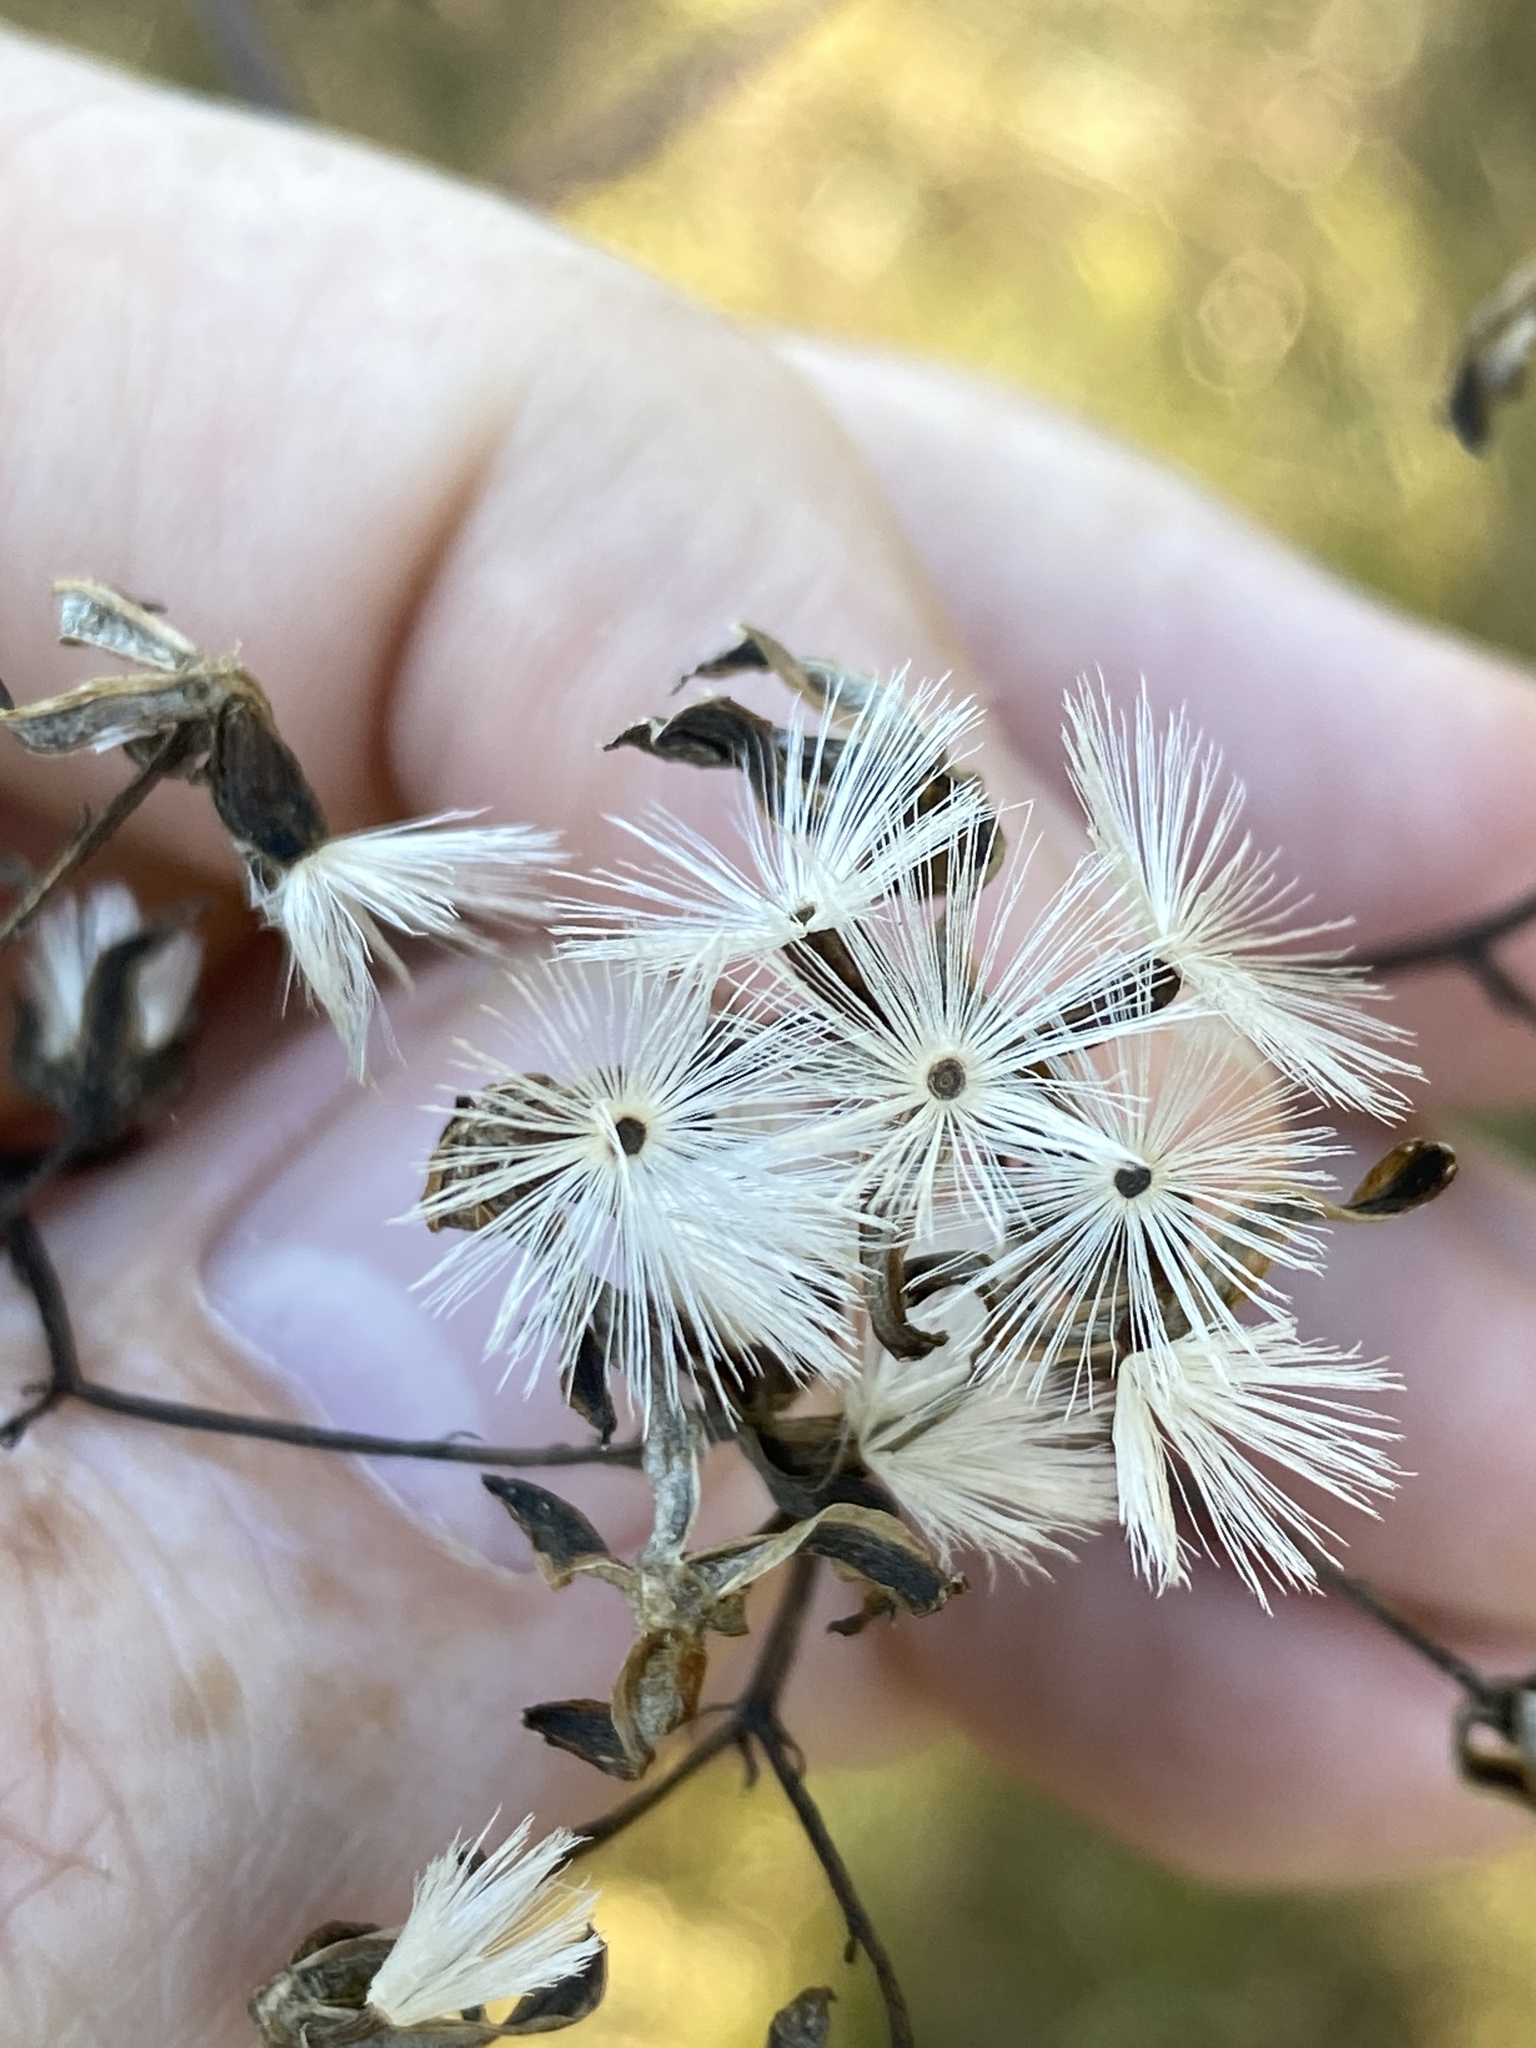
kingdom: Plantae
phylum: Tracheophyta
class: Magnoliopsida
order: Asterales
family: Asteraceae
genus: Arnoglossum
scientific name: Arnoglossum ovatum
